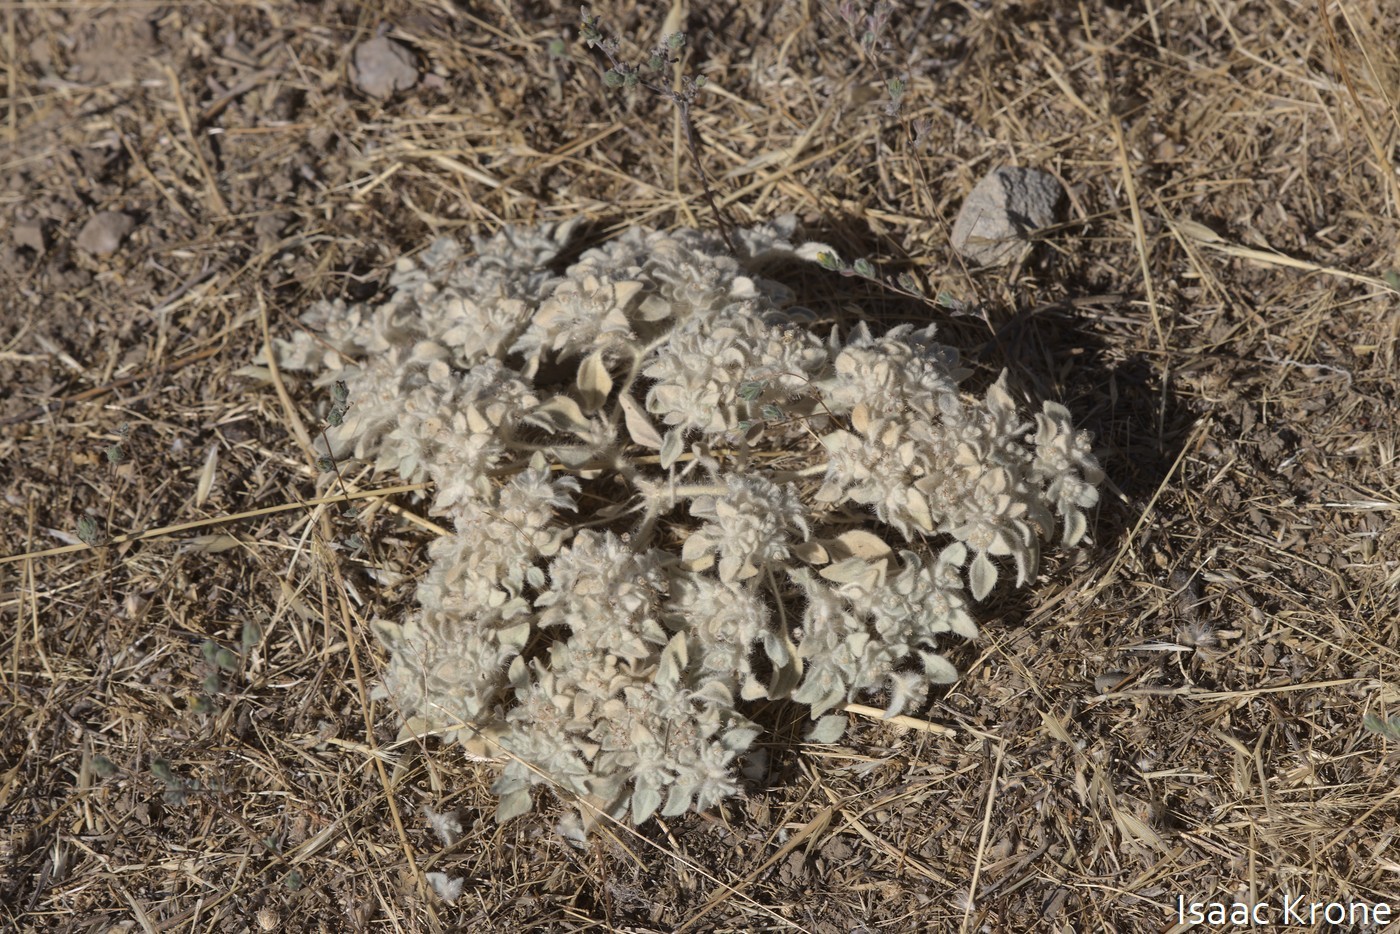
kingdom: Plantae
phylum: Tracheophyta
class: Magnoliopsida
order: Malpighiales
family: Euphorbiaceae
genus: Croton
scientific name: Croton setiger
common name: Dove weed
